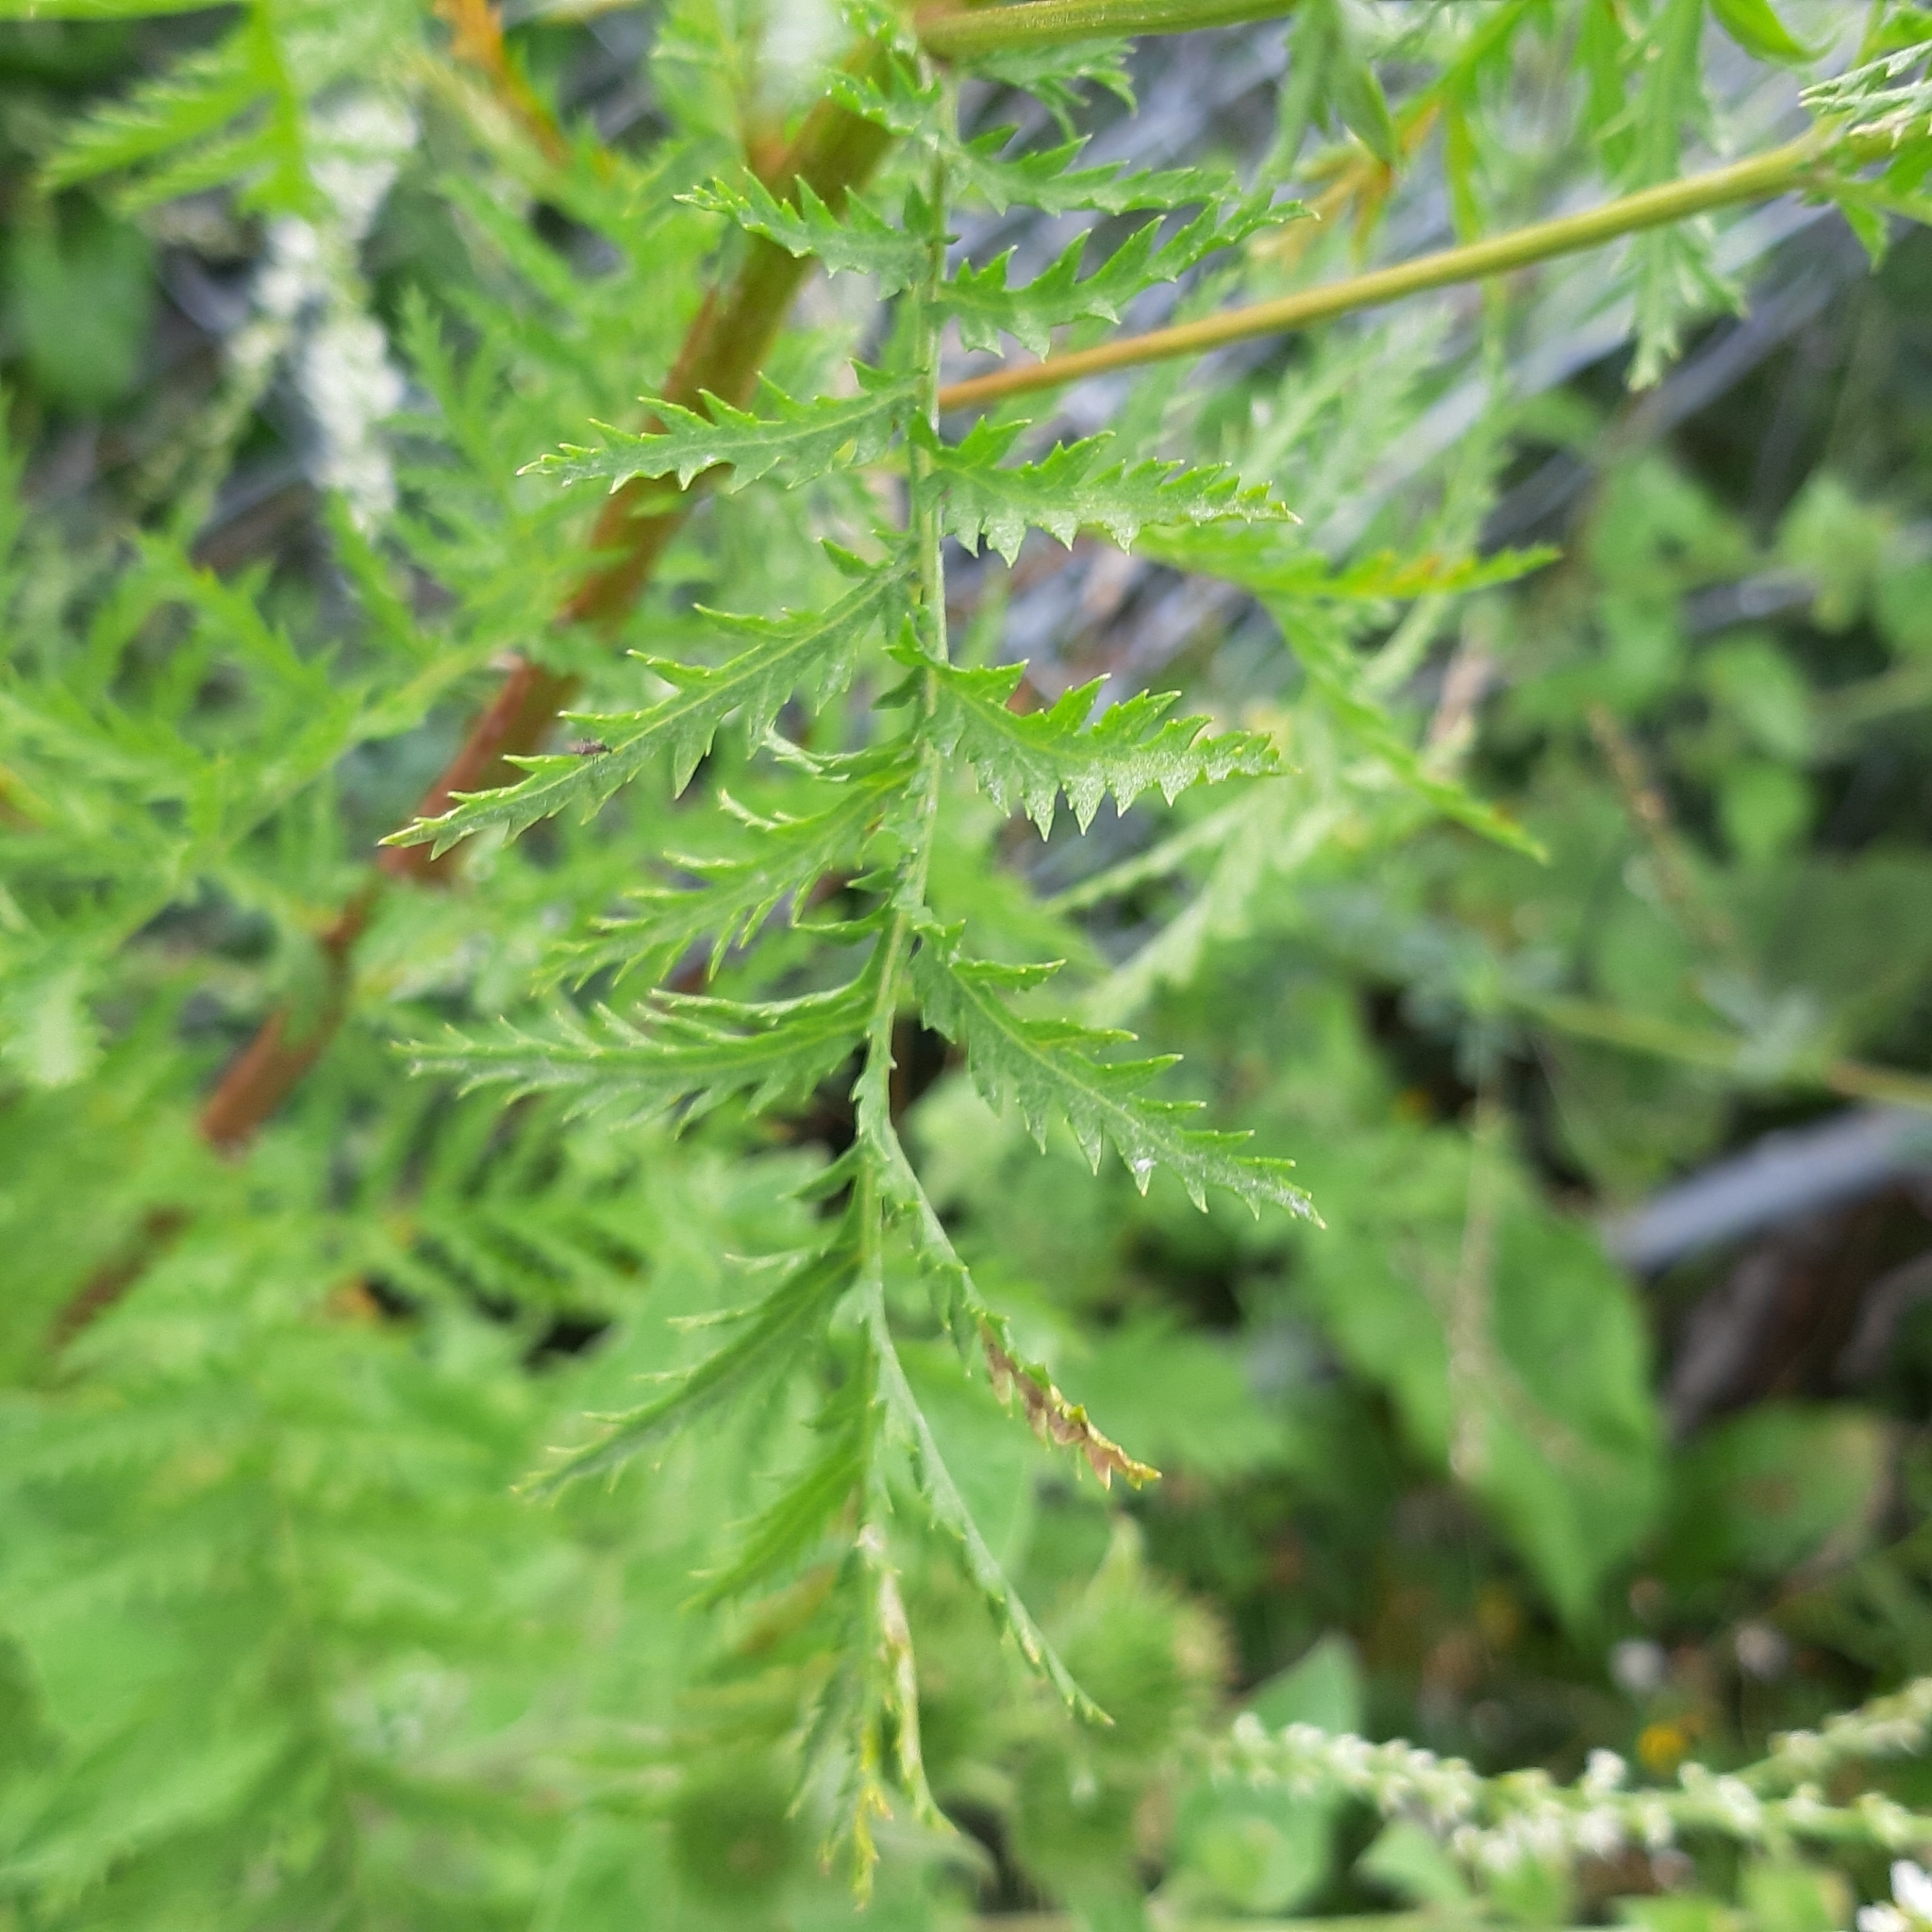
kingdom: Plantae
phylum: Tracheophyta
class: Magnoliopsida
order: Asterales
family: Asteraceae
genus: Tanacetum
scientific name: Tanacetum vulgare
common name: Common tansy
